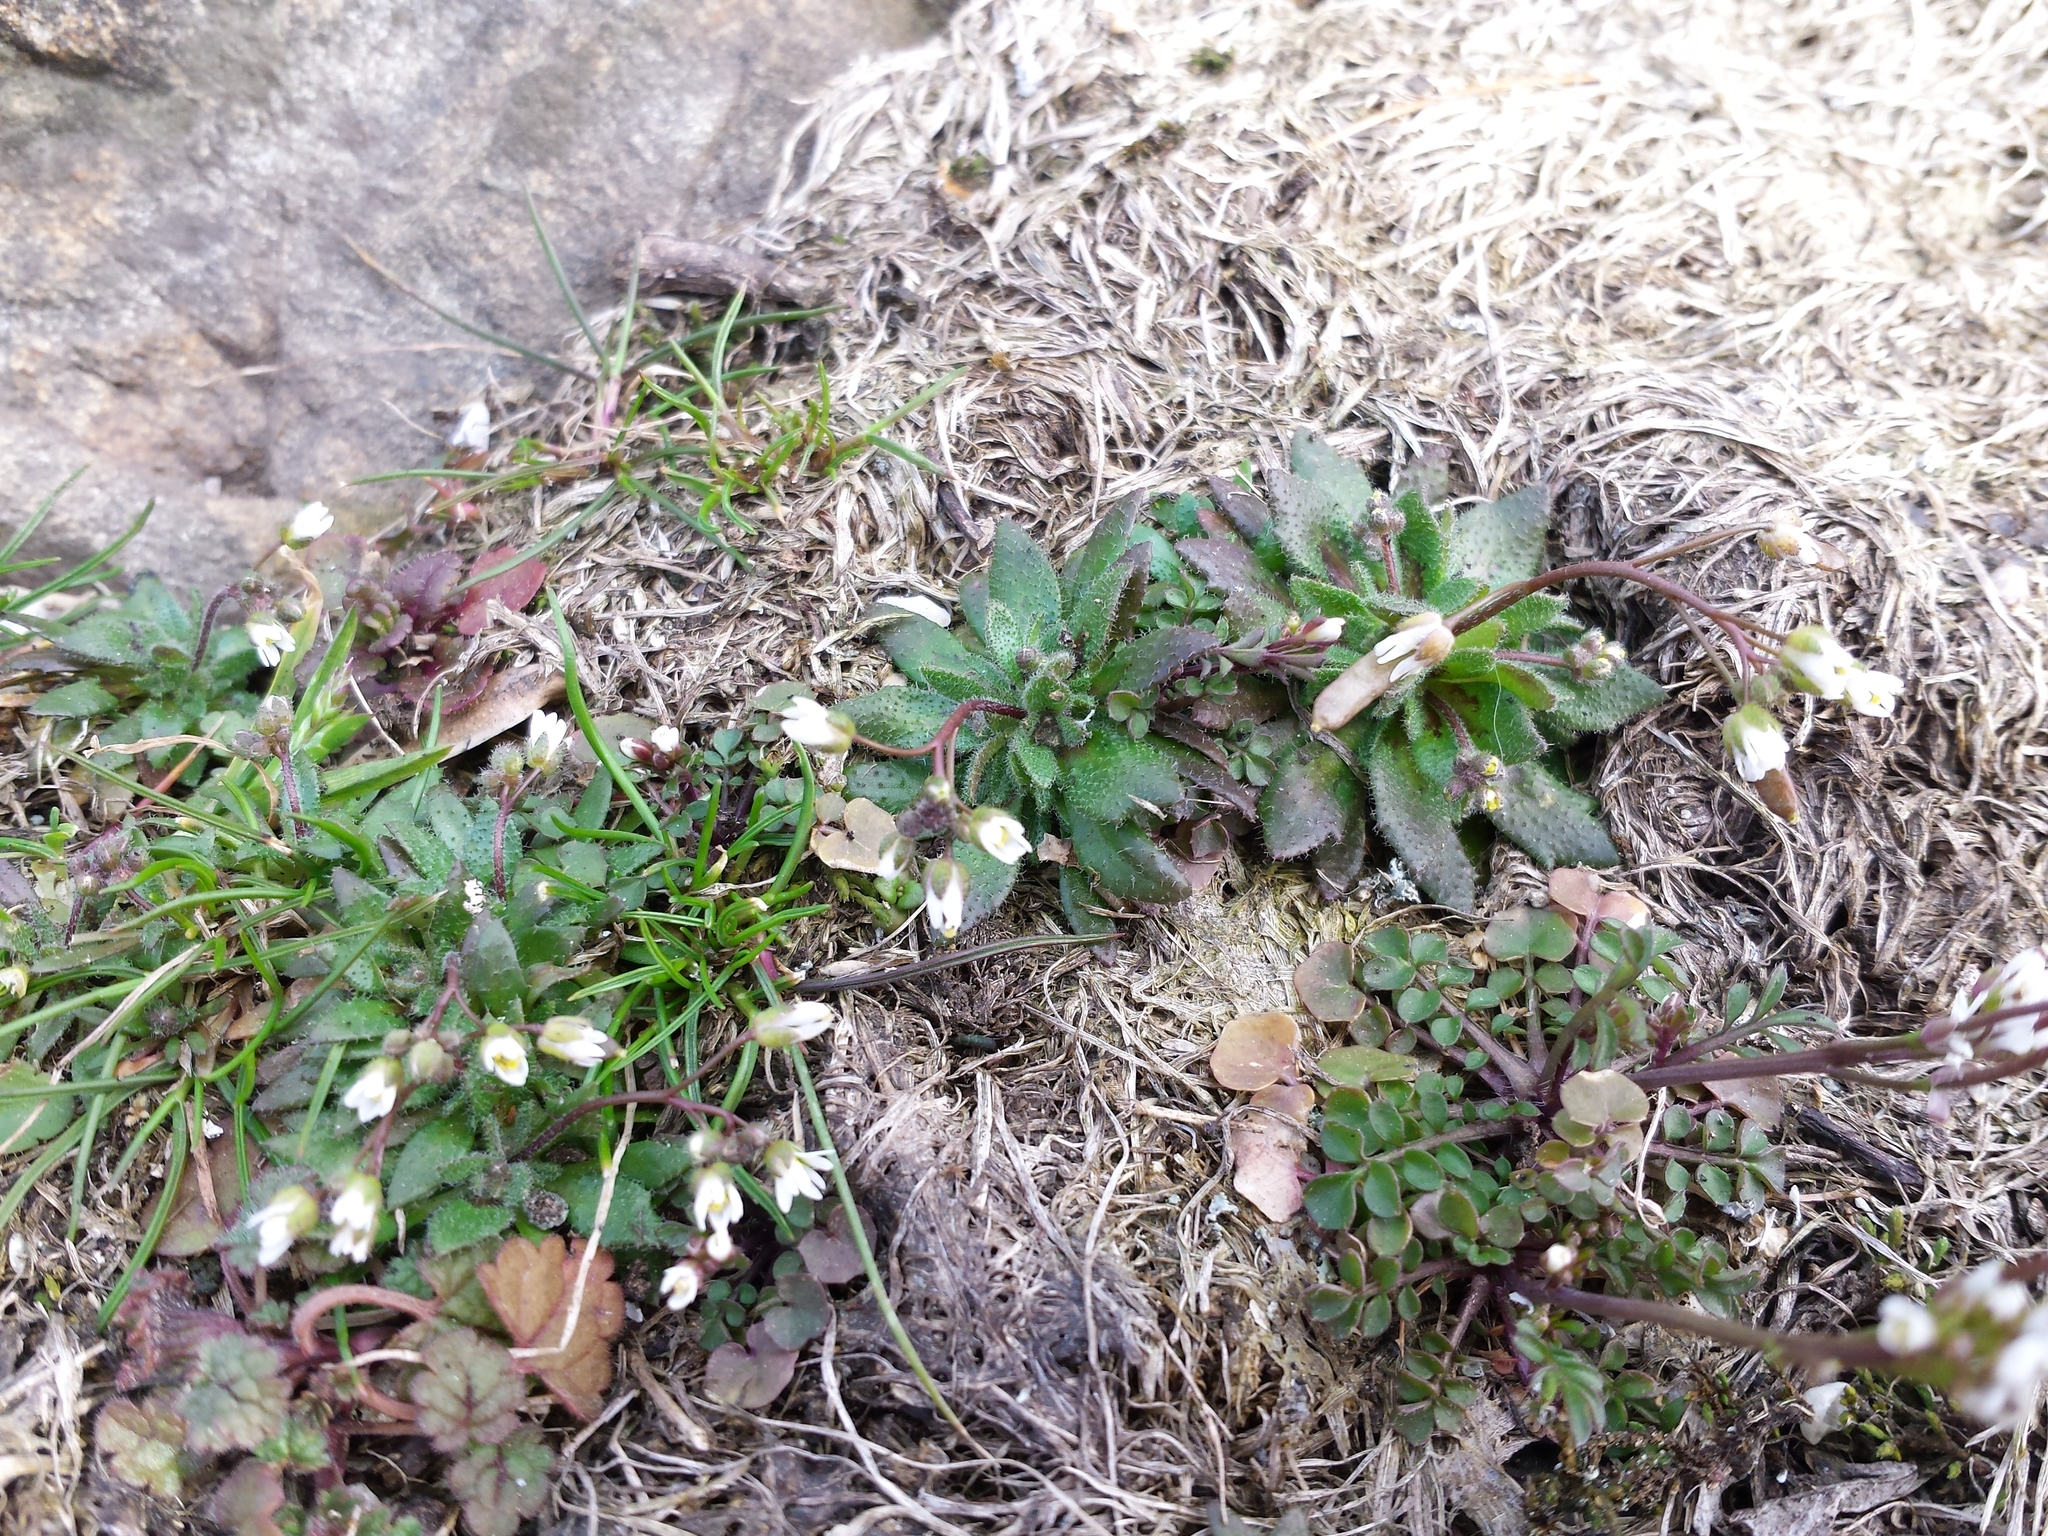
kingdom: Plantae
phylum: Tracheophyta
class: Magnoliopsida
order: Brassicales
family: Brassicaceae
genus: Draba
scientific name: Draba verna
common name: Spring draba
